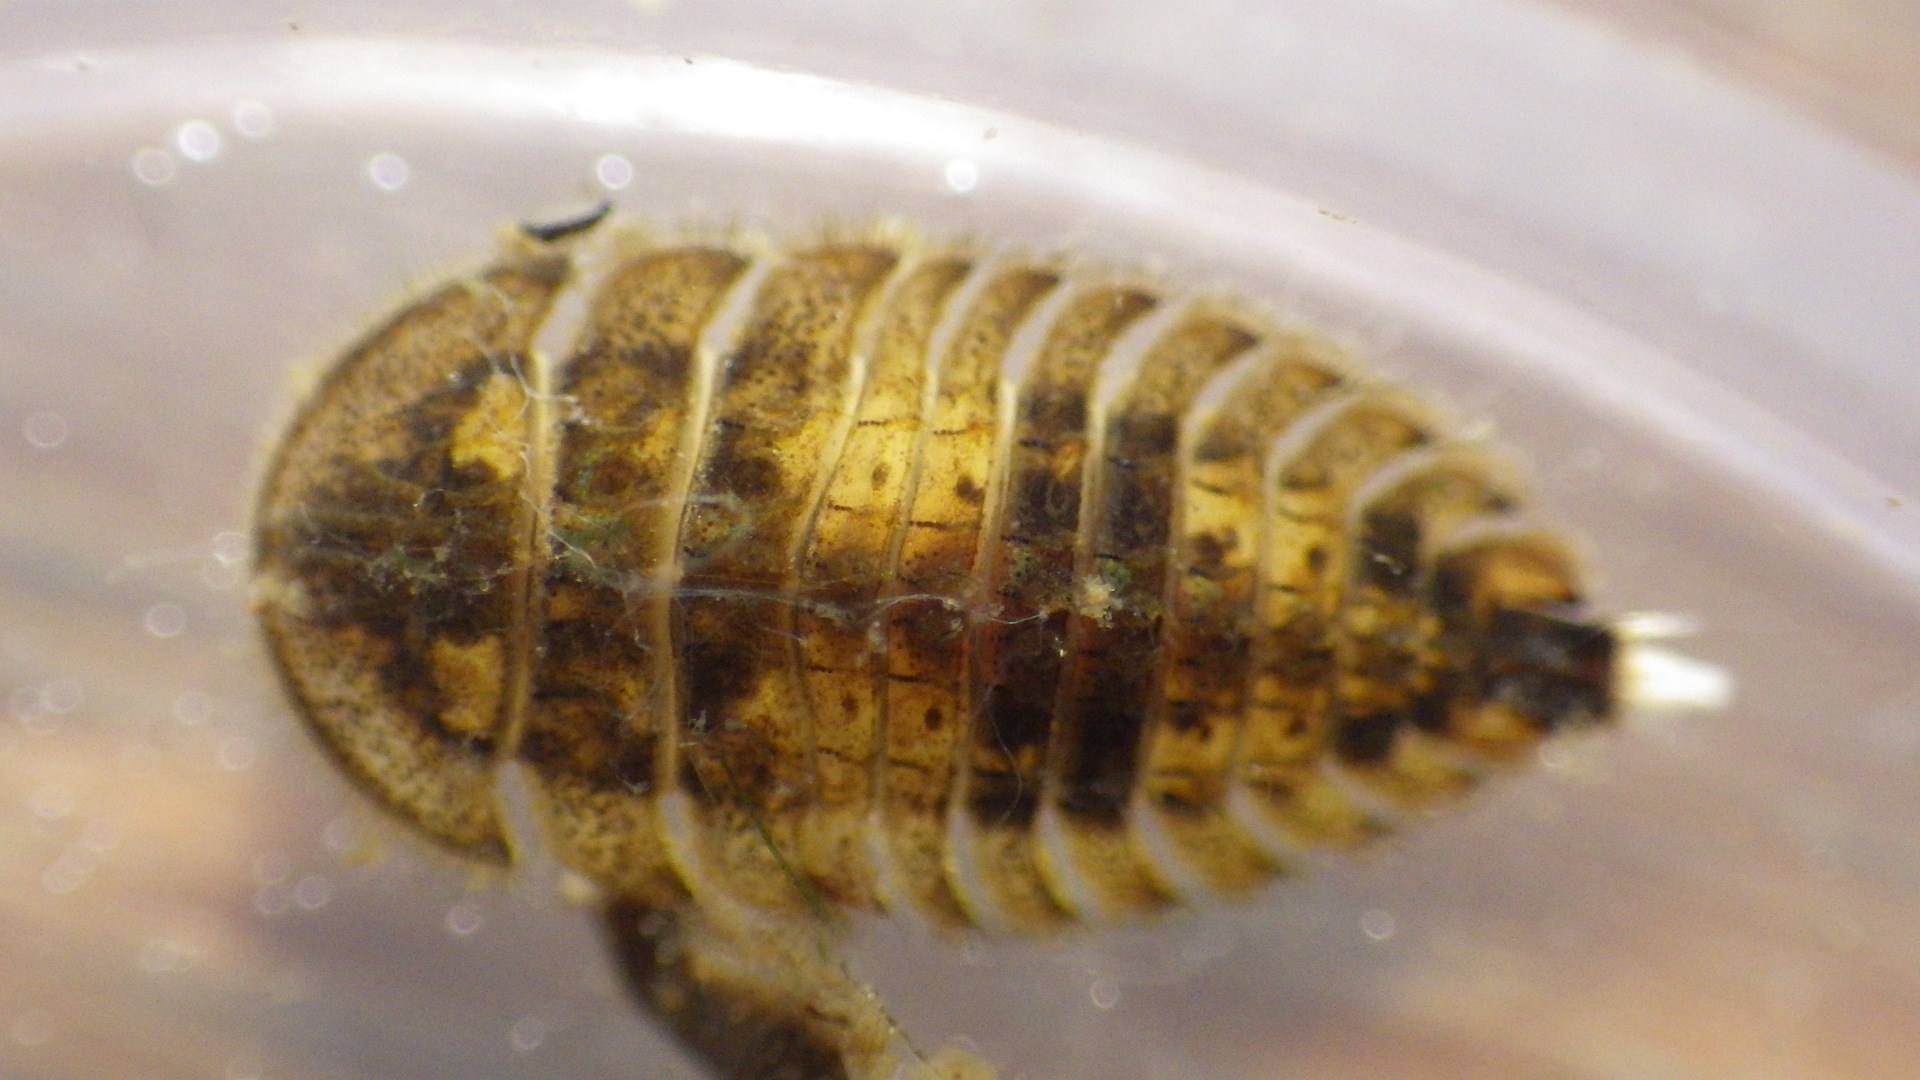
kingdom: Animalia
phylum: Arthropoda
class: Insecta
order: Coleoptera
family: Psephenidae
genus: Ectopria
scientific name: Ectopria nervosa
